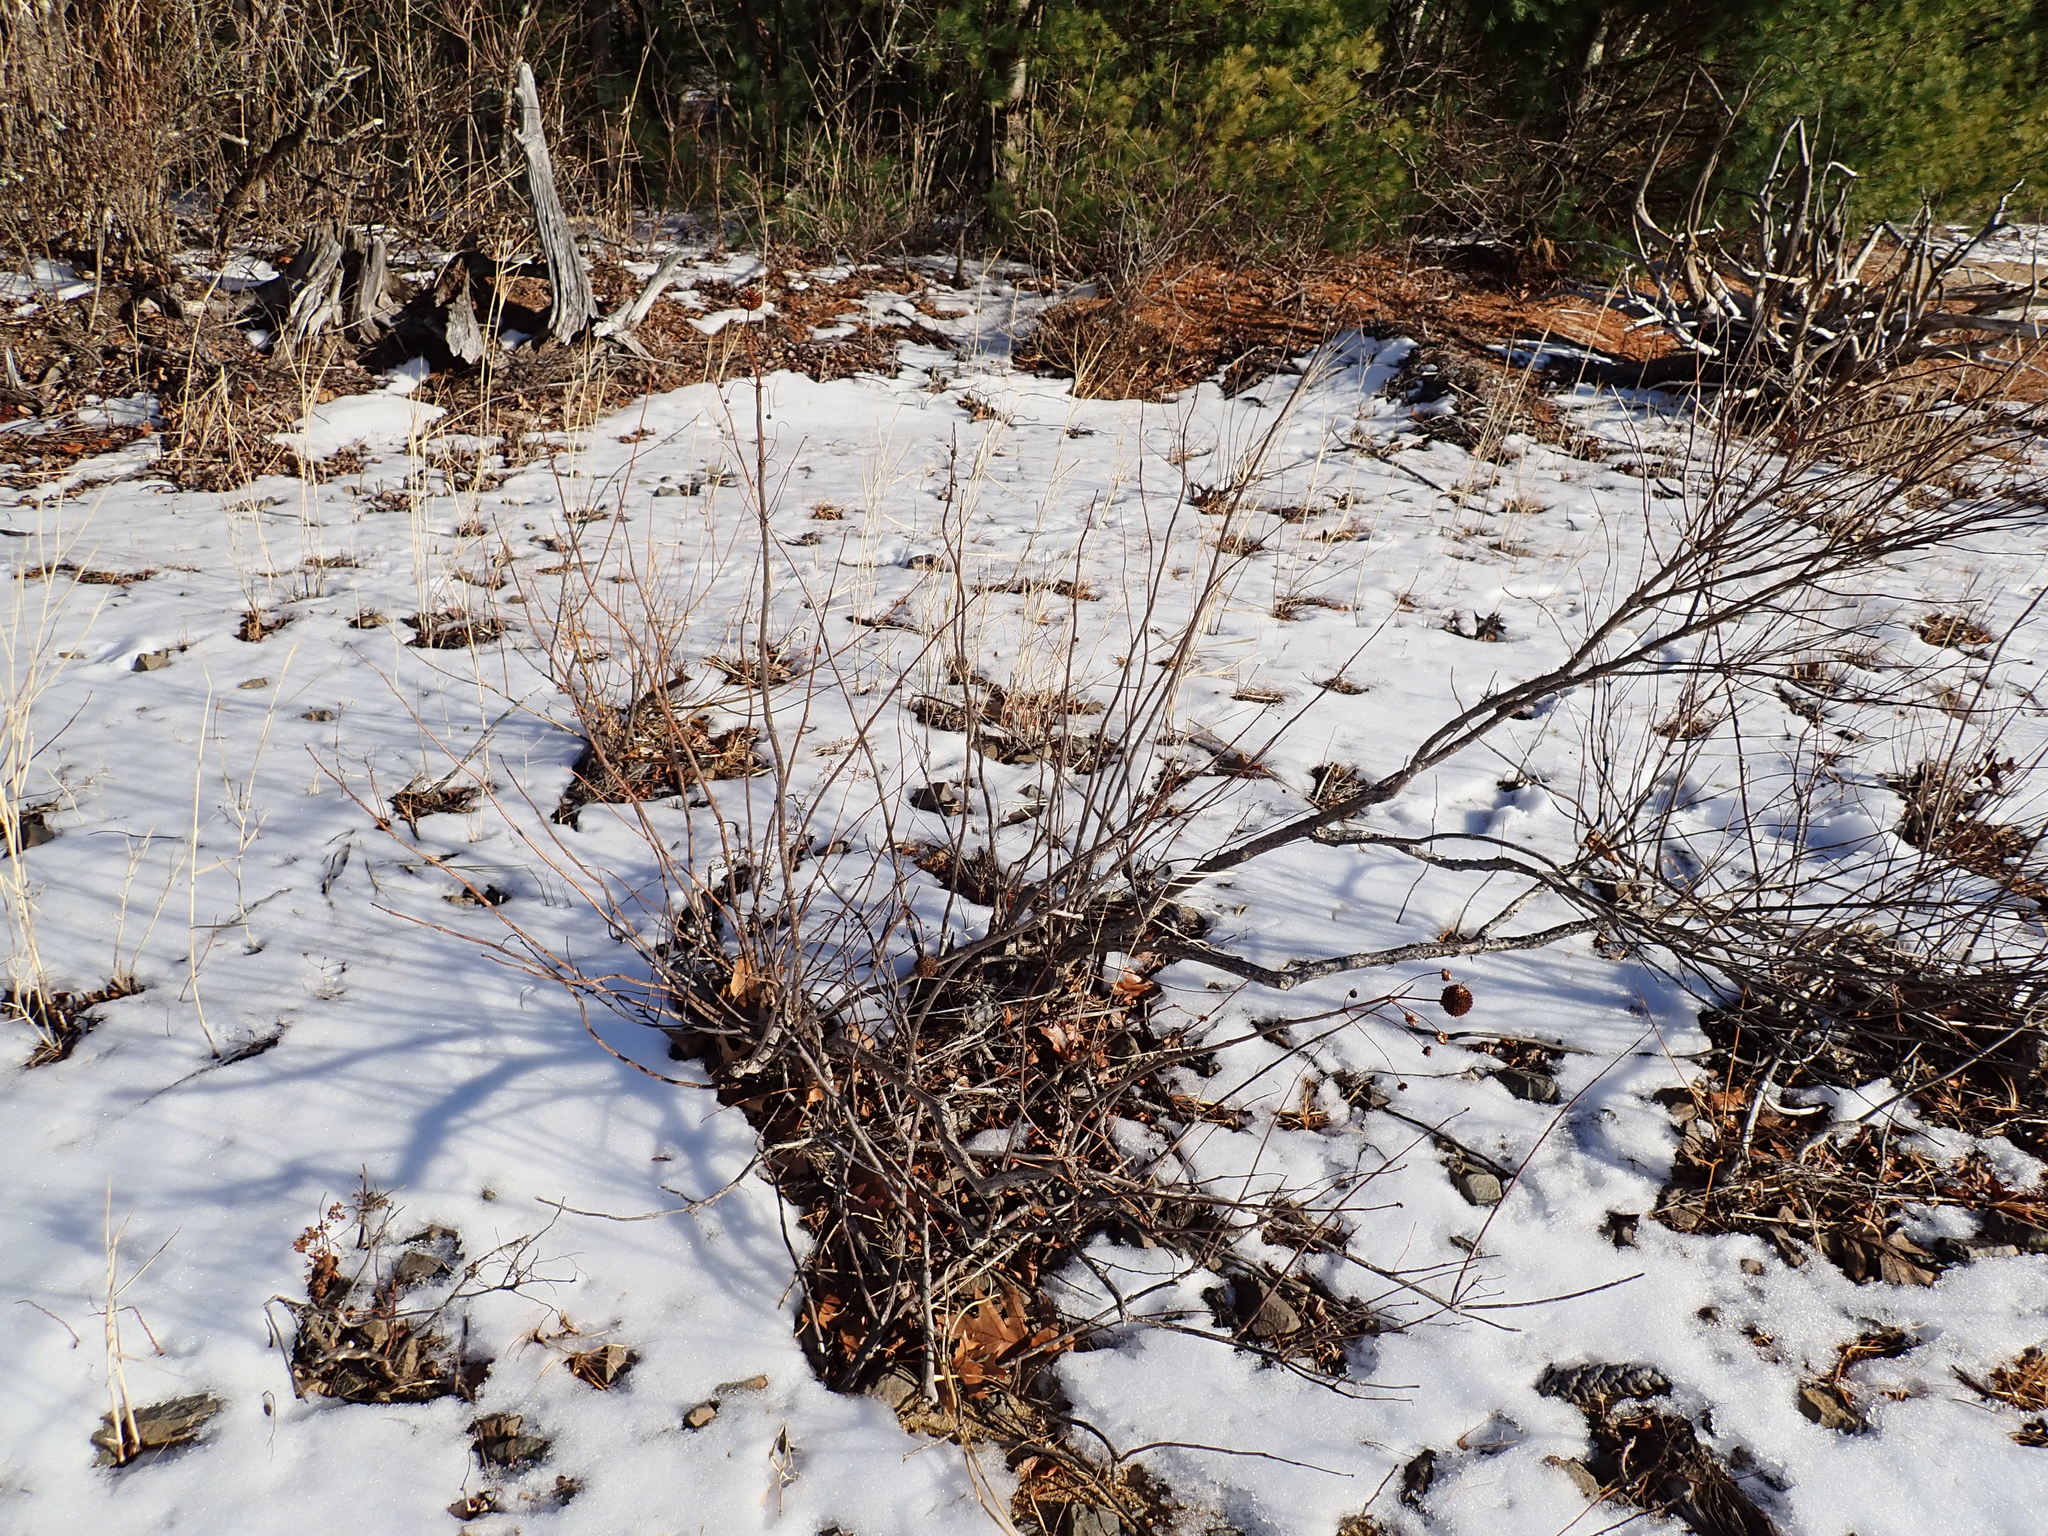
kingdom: Plantae
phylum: Tracheophyta
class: Magnoliopsida
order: Gentianales
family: Rubiaceae
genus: Cephalanthus
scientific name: Cephalanthus occidentalis
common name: Button-willow
